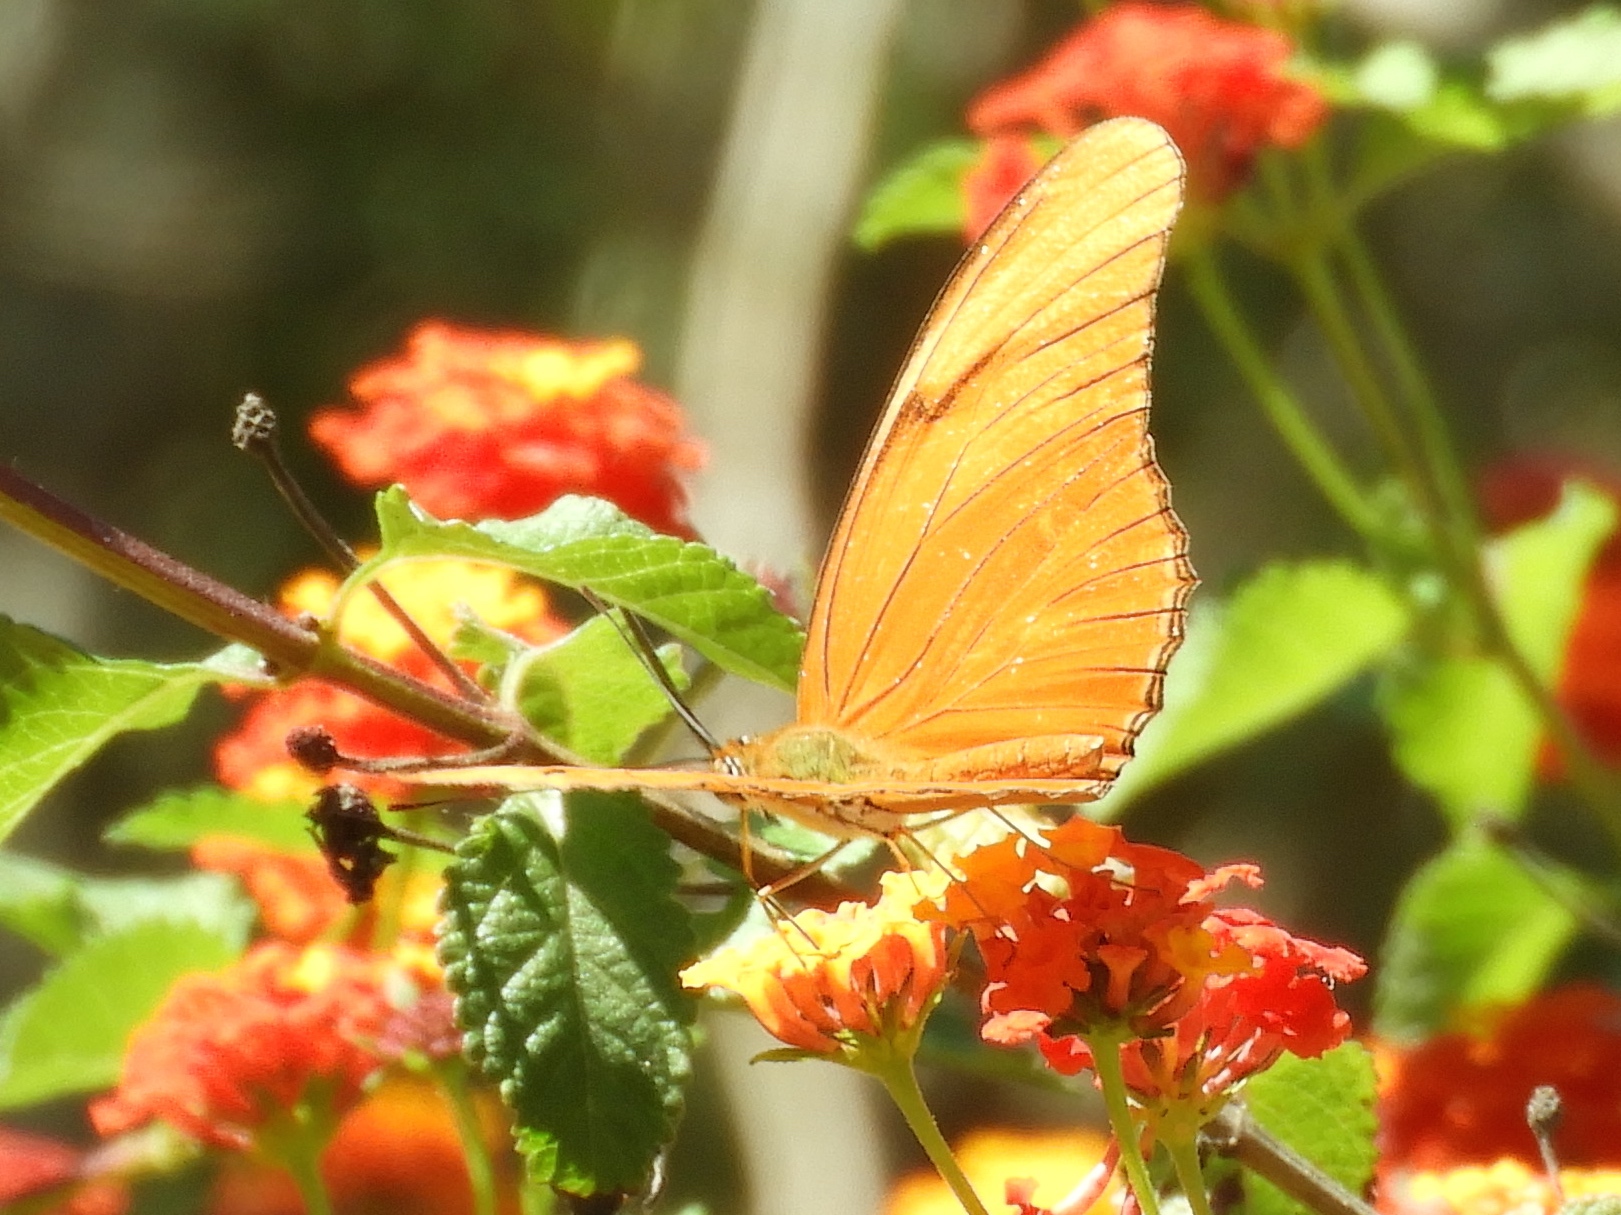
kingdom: Animalia
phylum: Arthropoda
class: Insecta
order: Lepidoptera
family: Nymphalidae
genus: Dryas
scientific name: Dryas iulia
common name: Flambeau
